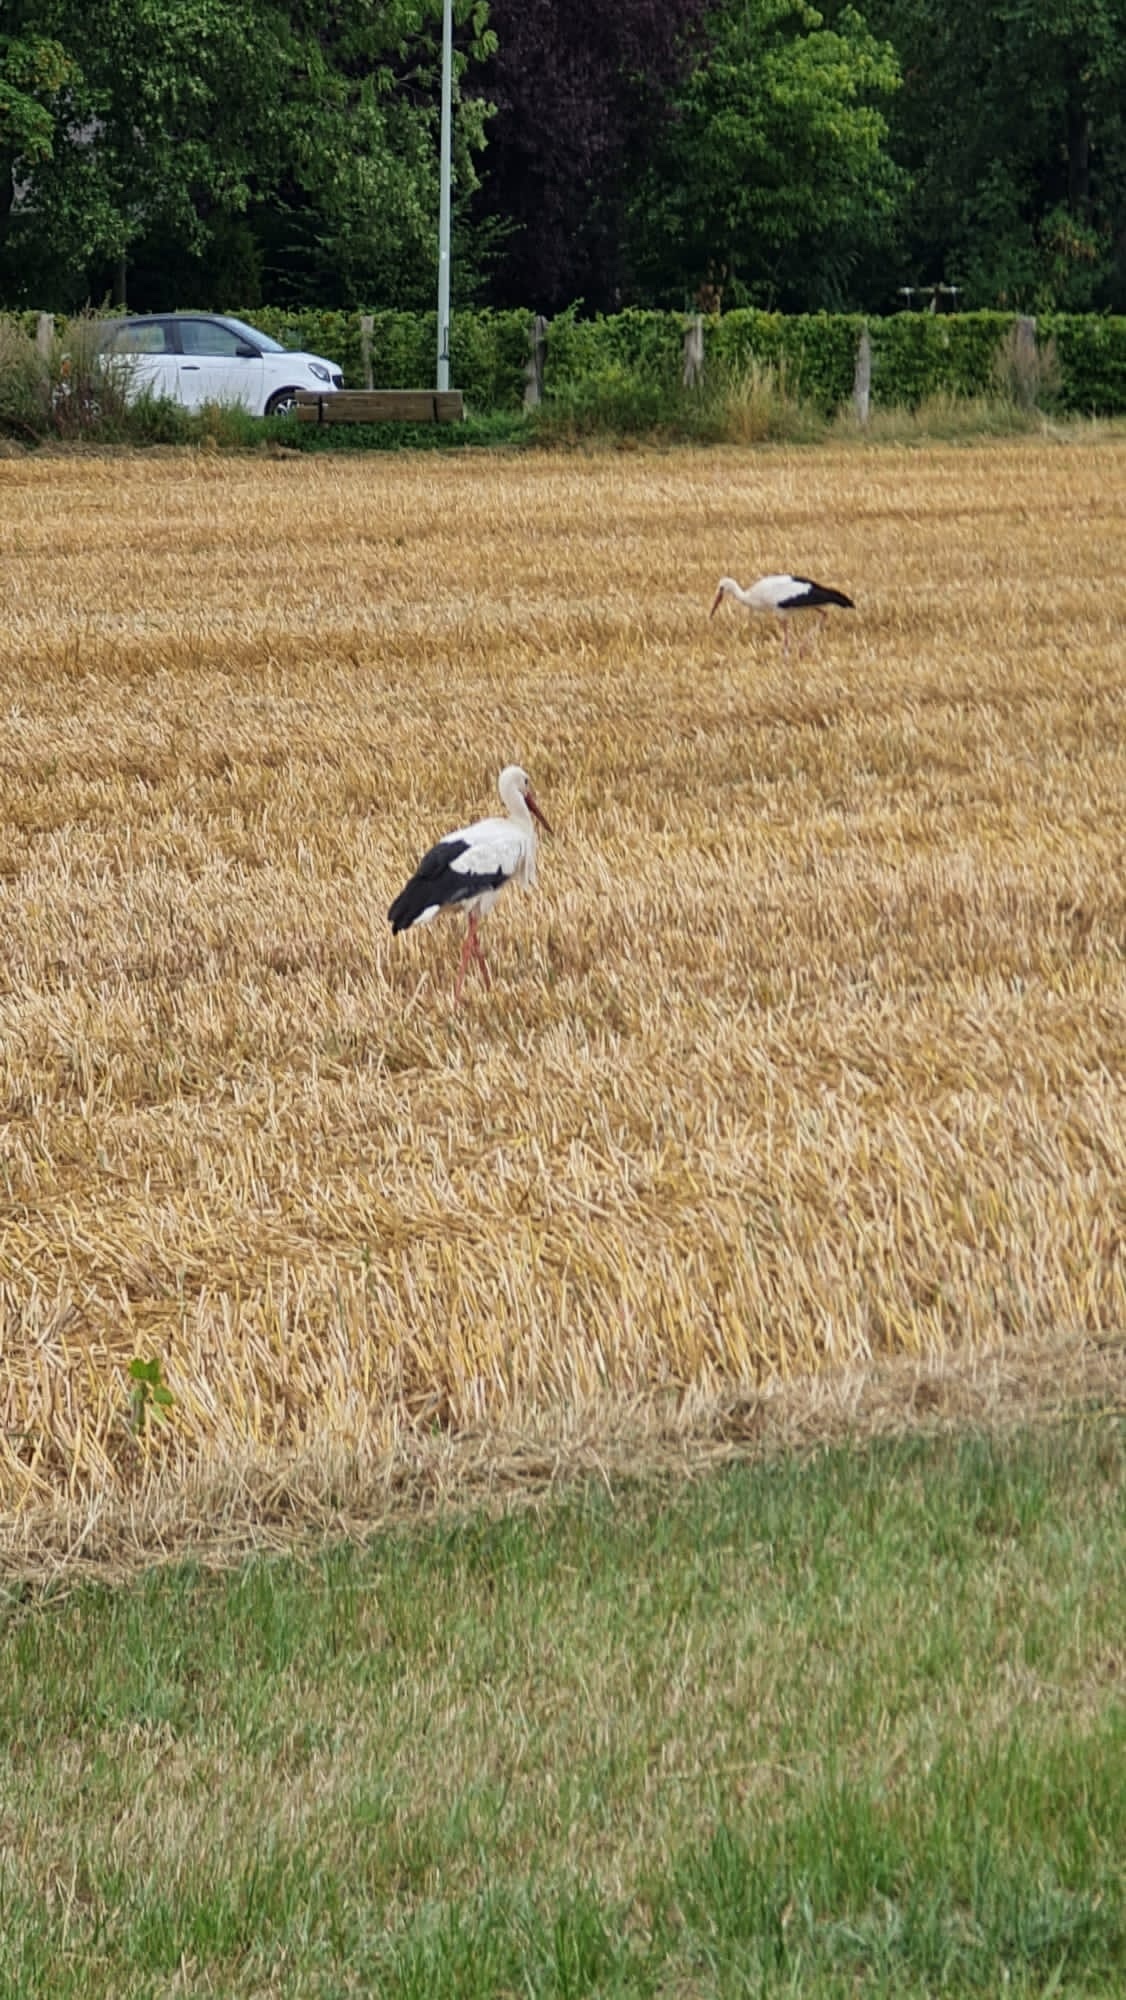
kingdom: Animalia
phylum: Chordata
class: Aves
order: Ciconiiformes
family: Ciconiidae
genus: Ciconia
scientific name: Ciconia ciconia
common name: White stork
